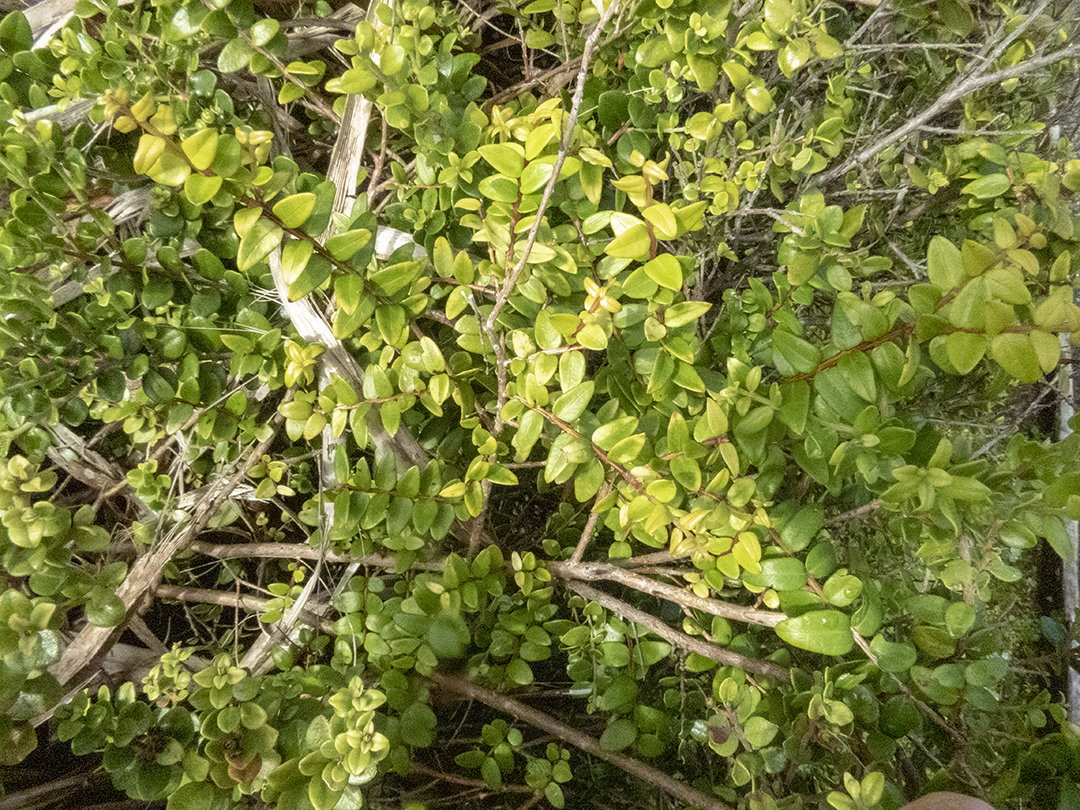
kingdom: Plantae
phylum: Tracheophyta
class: Magnoliopsida
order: Myrtales
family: Myrtaceae
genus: Metrosideros
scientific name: Metrosideros diffusa
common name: Small ratavine
